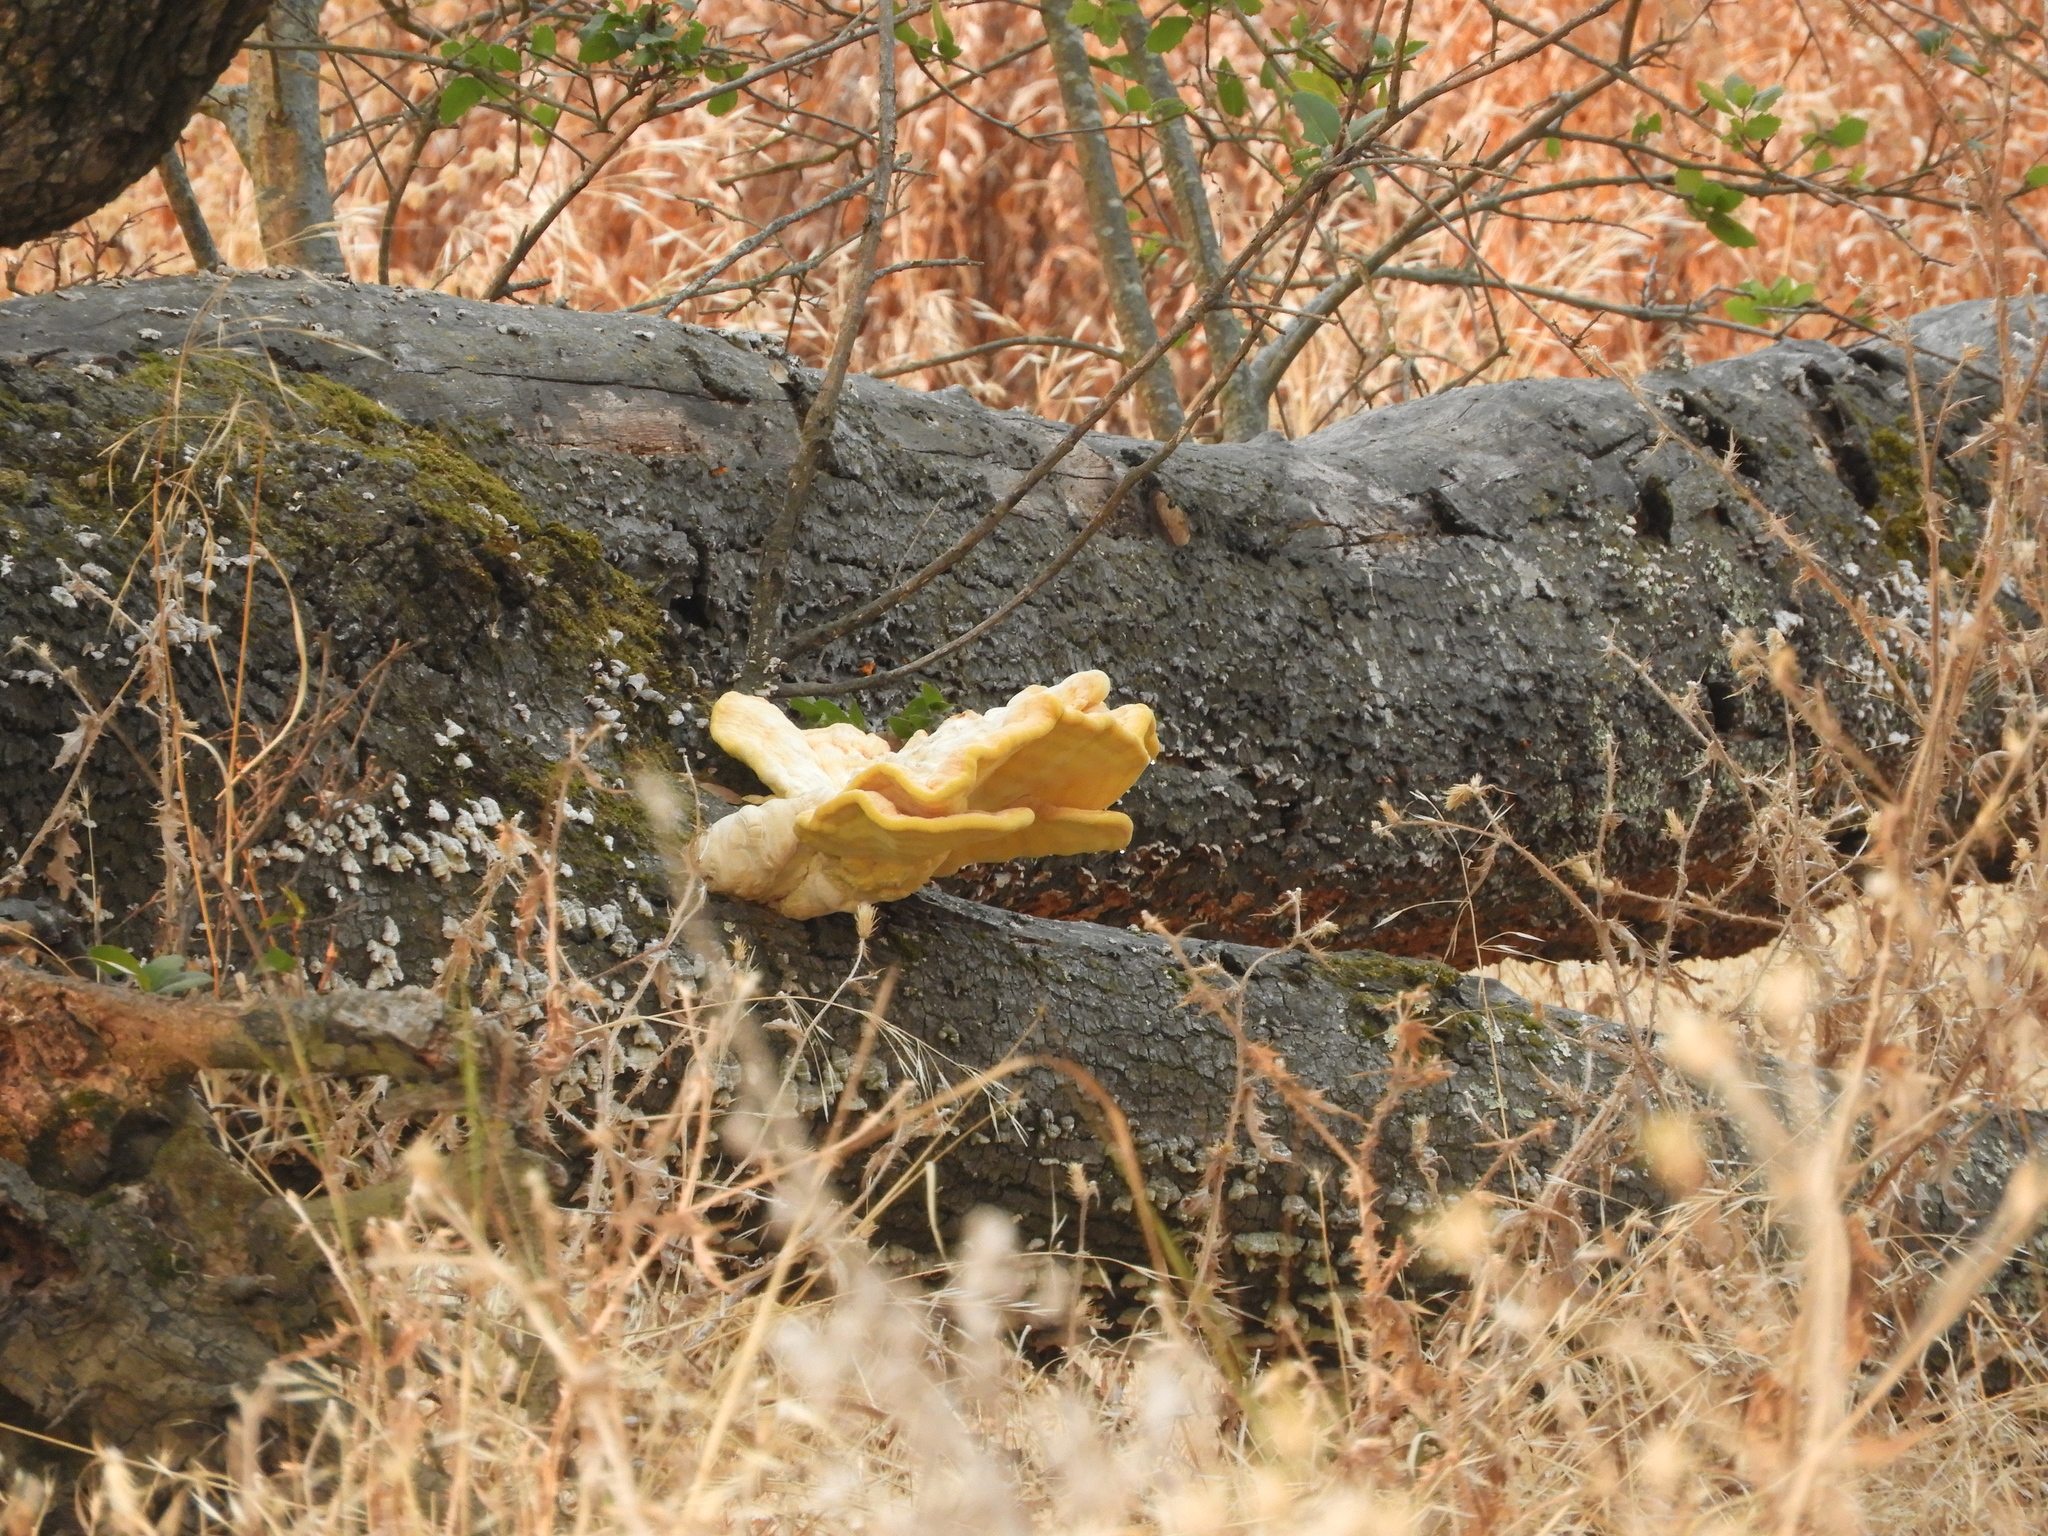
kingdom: Fungi
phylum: Basidiomycota
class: Agaricomycetes
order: Polyporales
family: Laetiporaceae
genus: Laetiporus
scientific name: Laetiporus gilbertsonii
